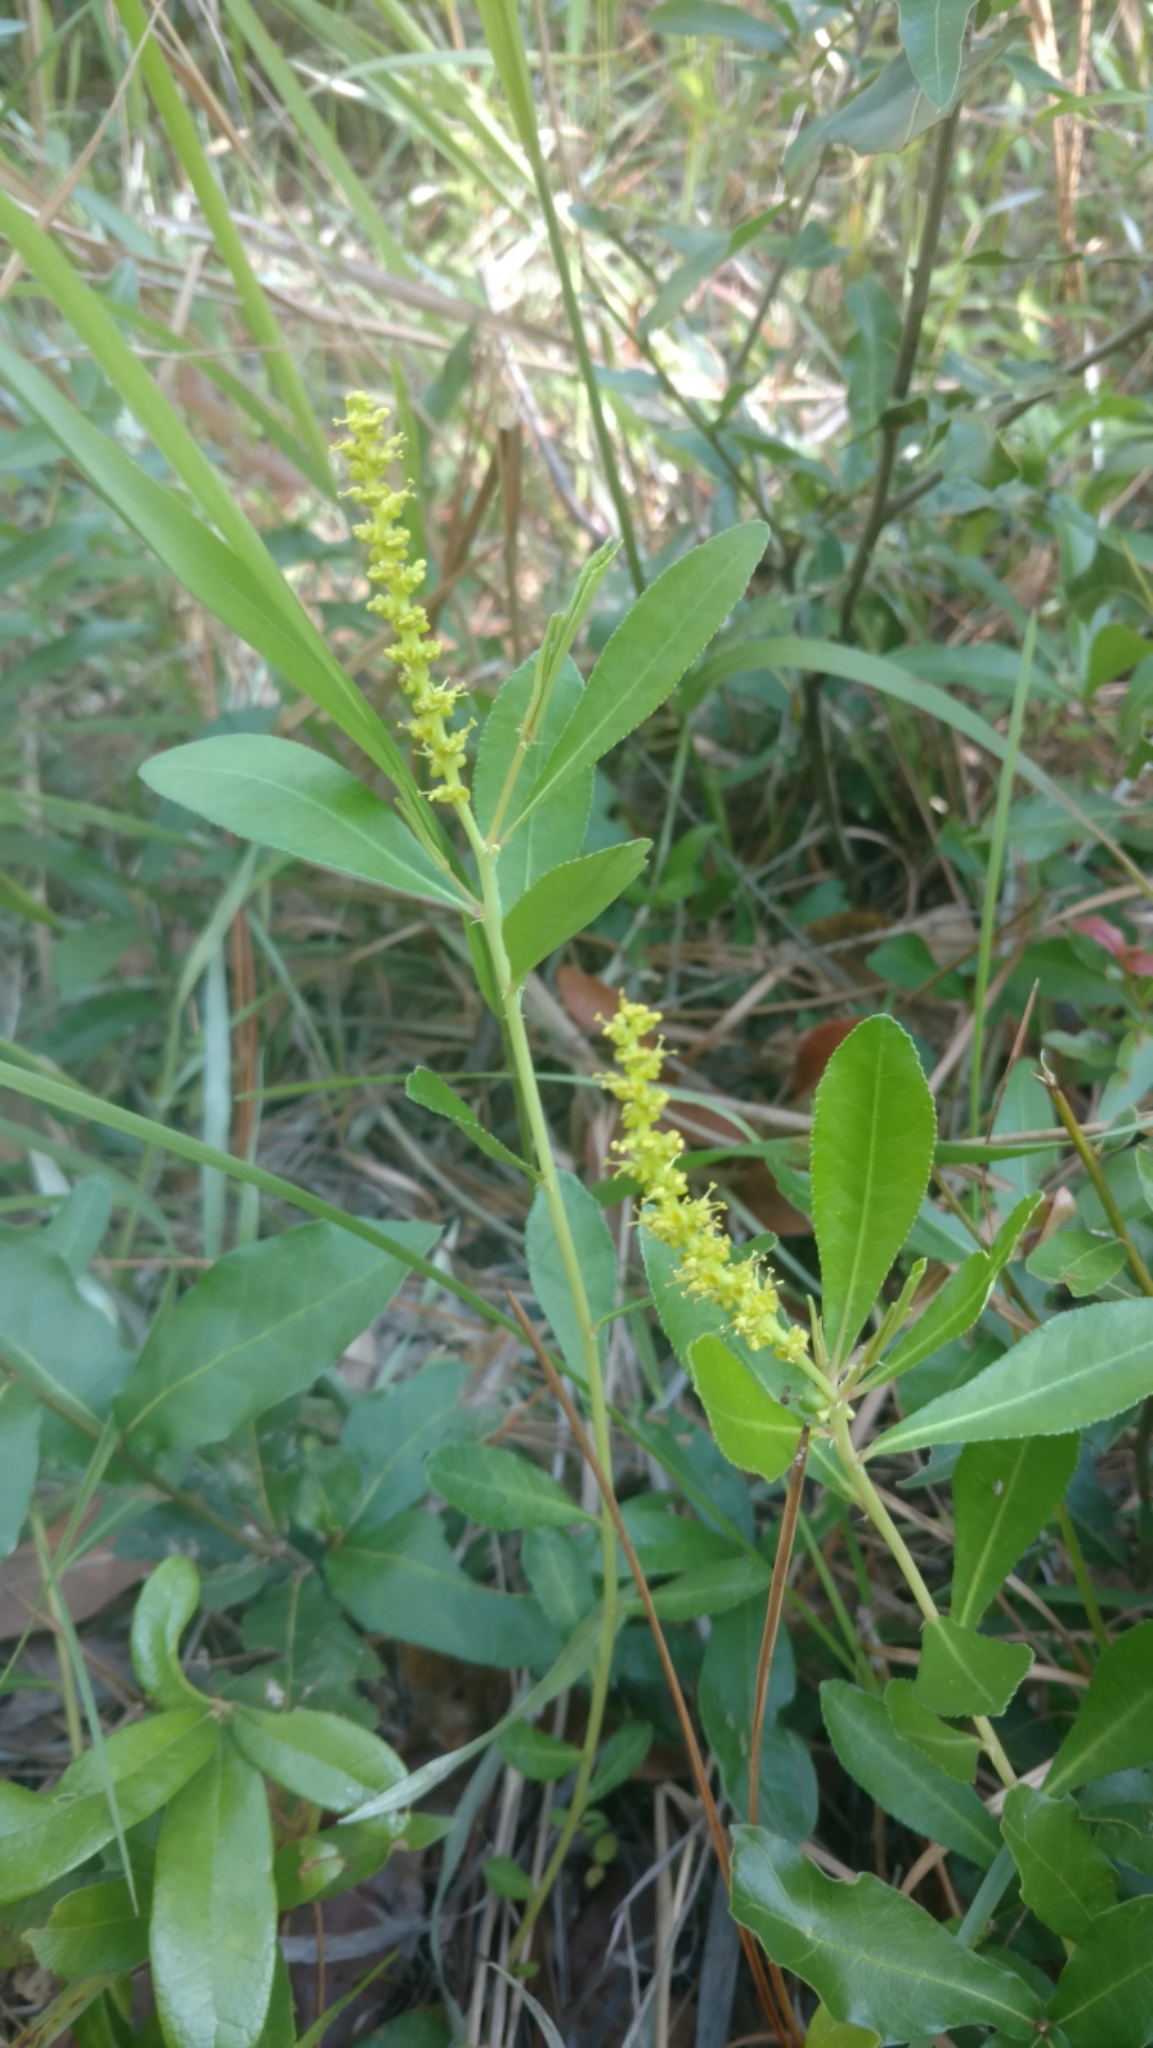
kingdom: Plantae
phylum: Tracheophyta
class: Magnoliopsida
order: Malpighiales
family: Euphorbiaceae
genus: Stillingia
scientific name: Stillingia sylvatica
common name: Queen's-delight
